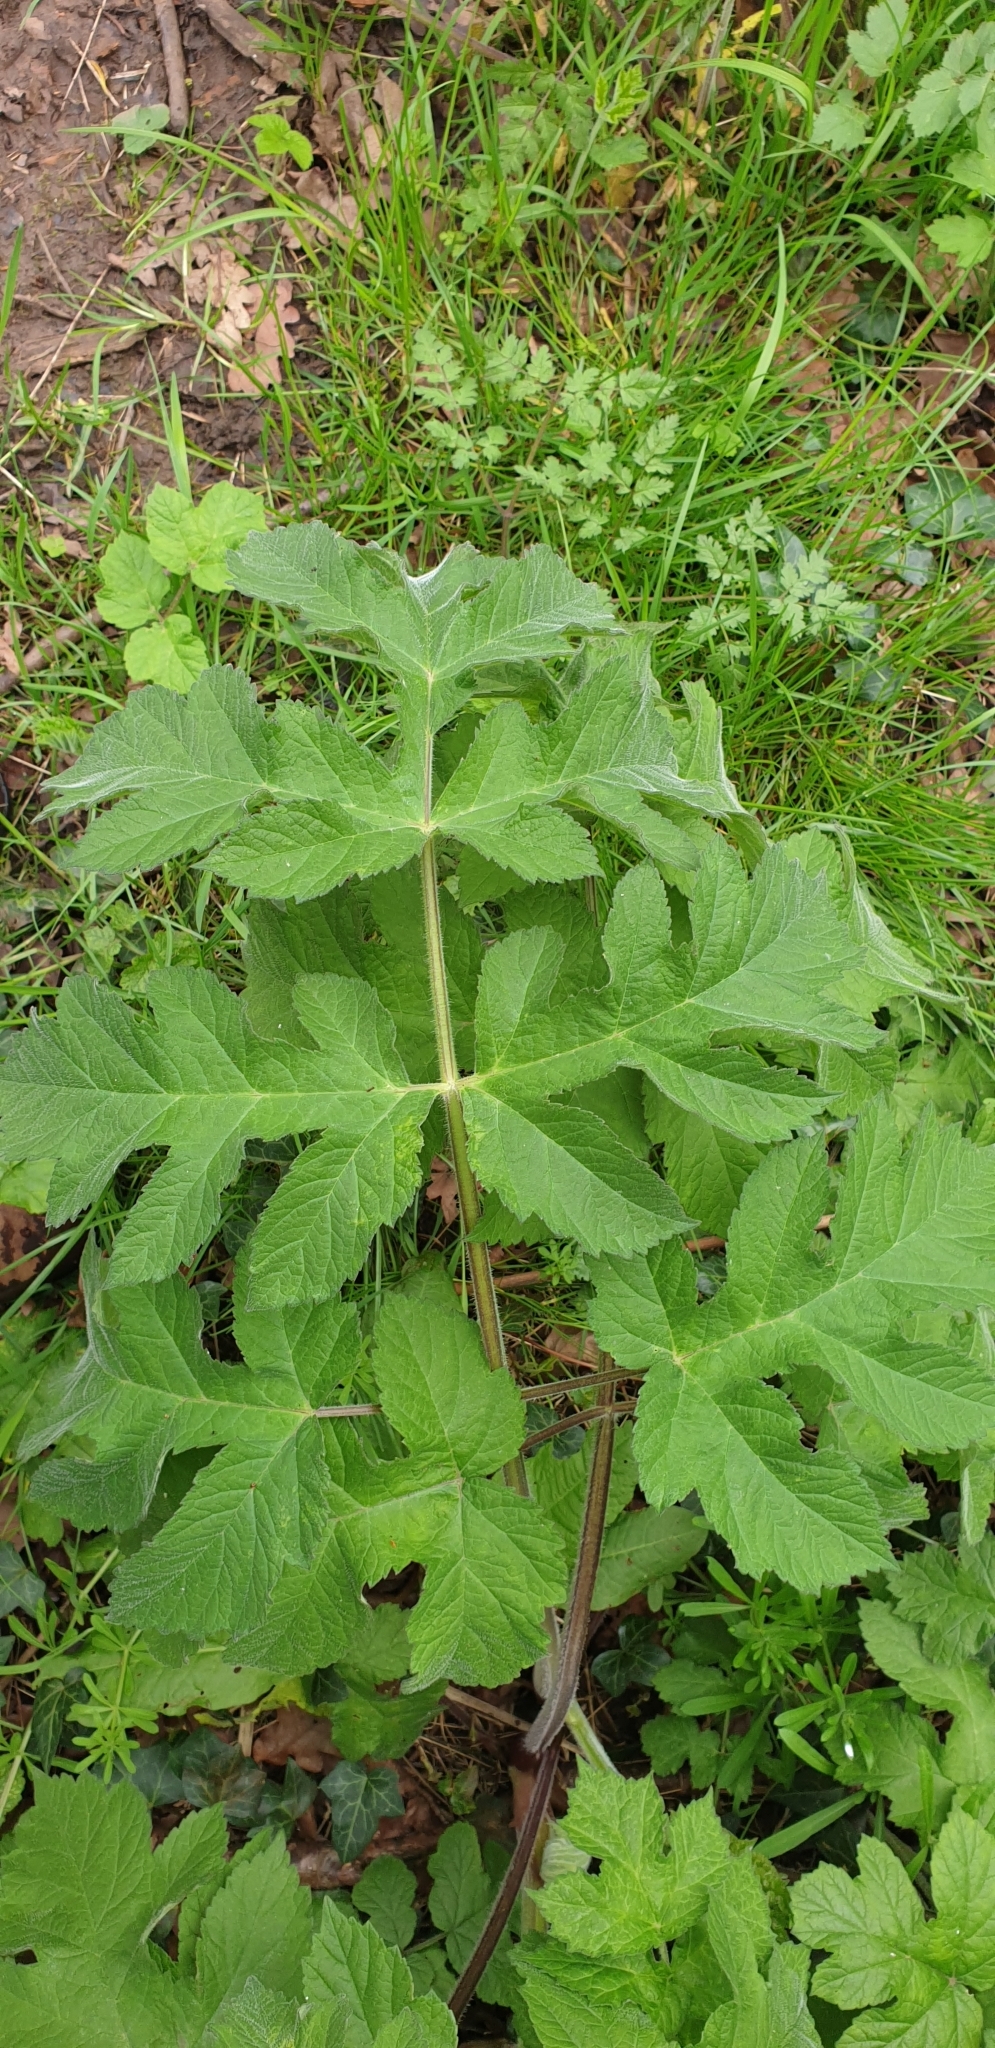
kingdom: Plantae
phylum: Tracheophyta
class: Magnoliopsida
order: Apiales
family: Apiaceae
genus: Heracleum
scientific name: Heracleum sphondylium
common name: Hogweed
